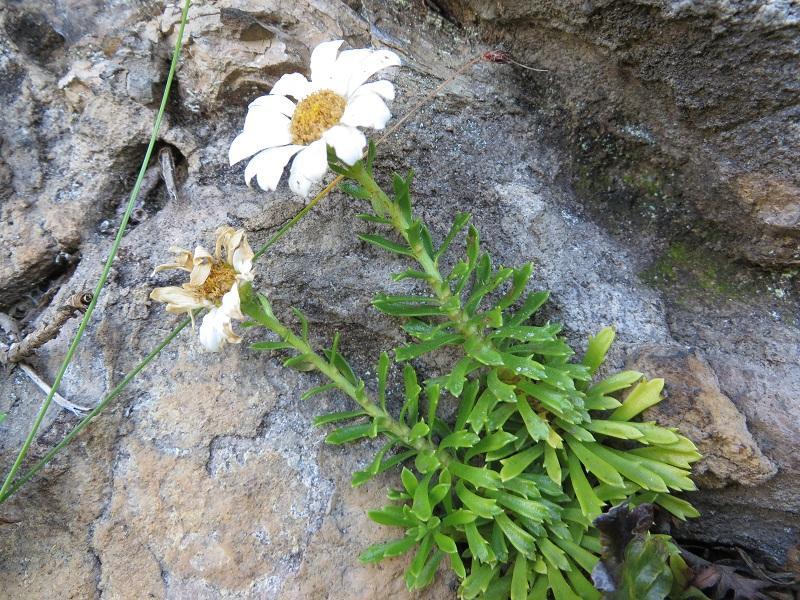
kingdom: Plantae
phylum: Tracheophyta
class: Magnoliopsida
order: Asterales
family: Asteraceae
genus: Osmitopsis
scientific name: Osmitopsis nana
